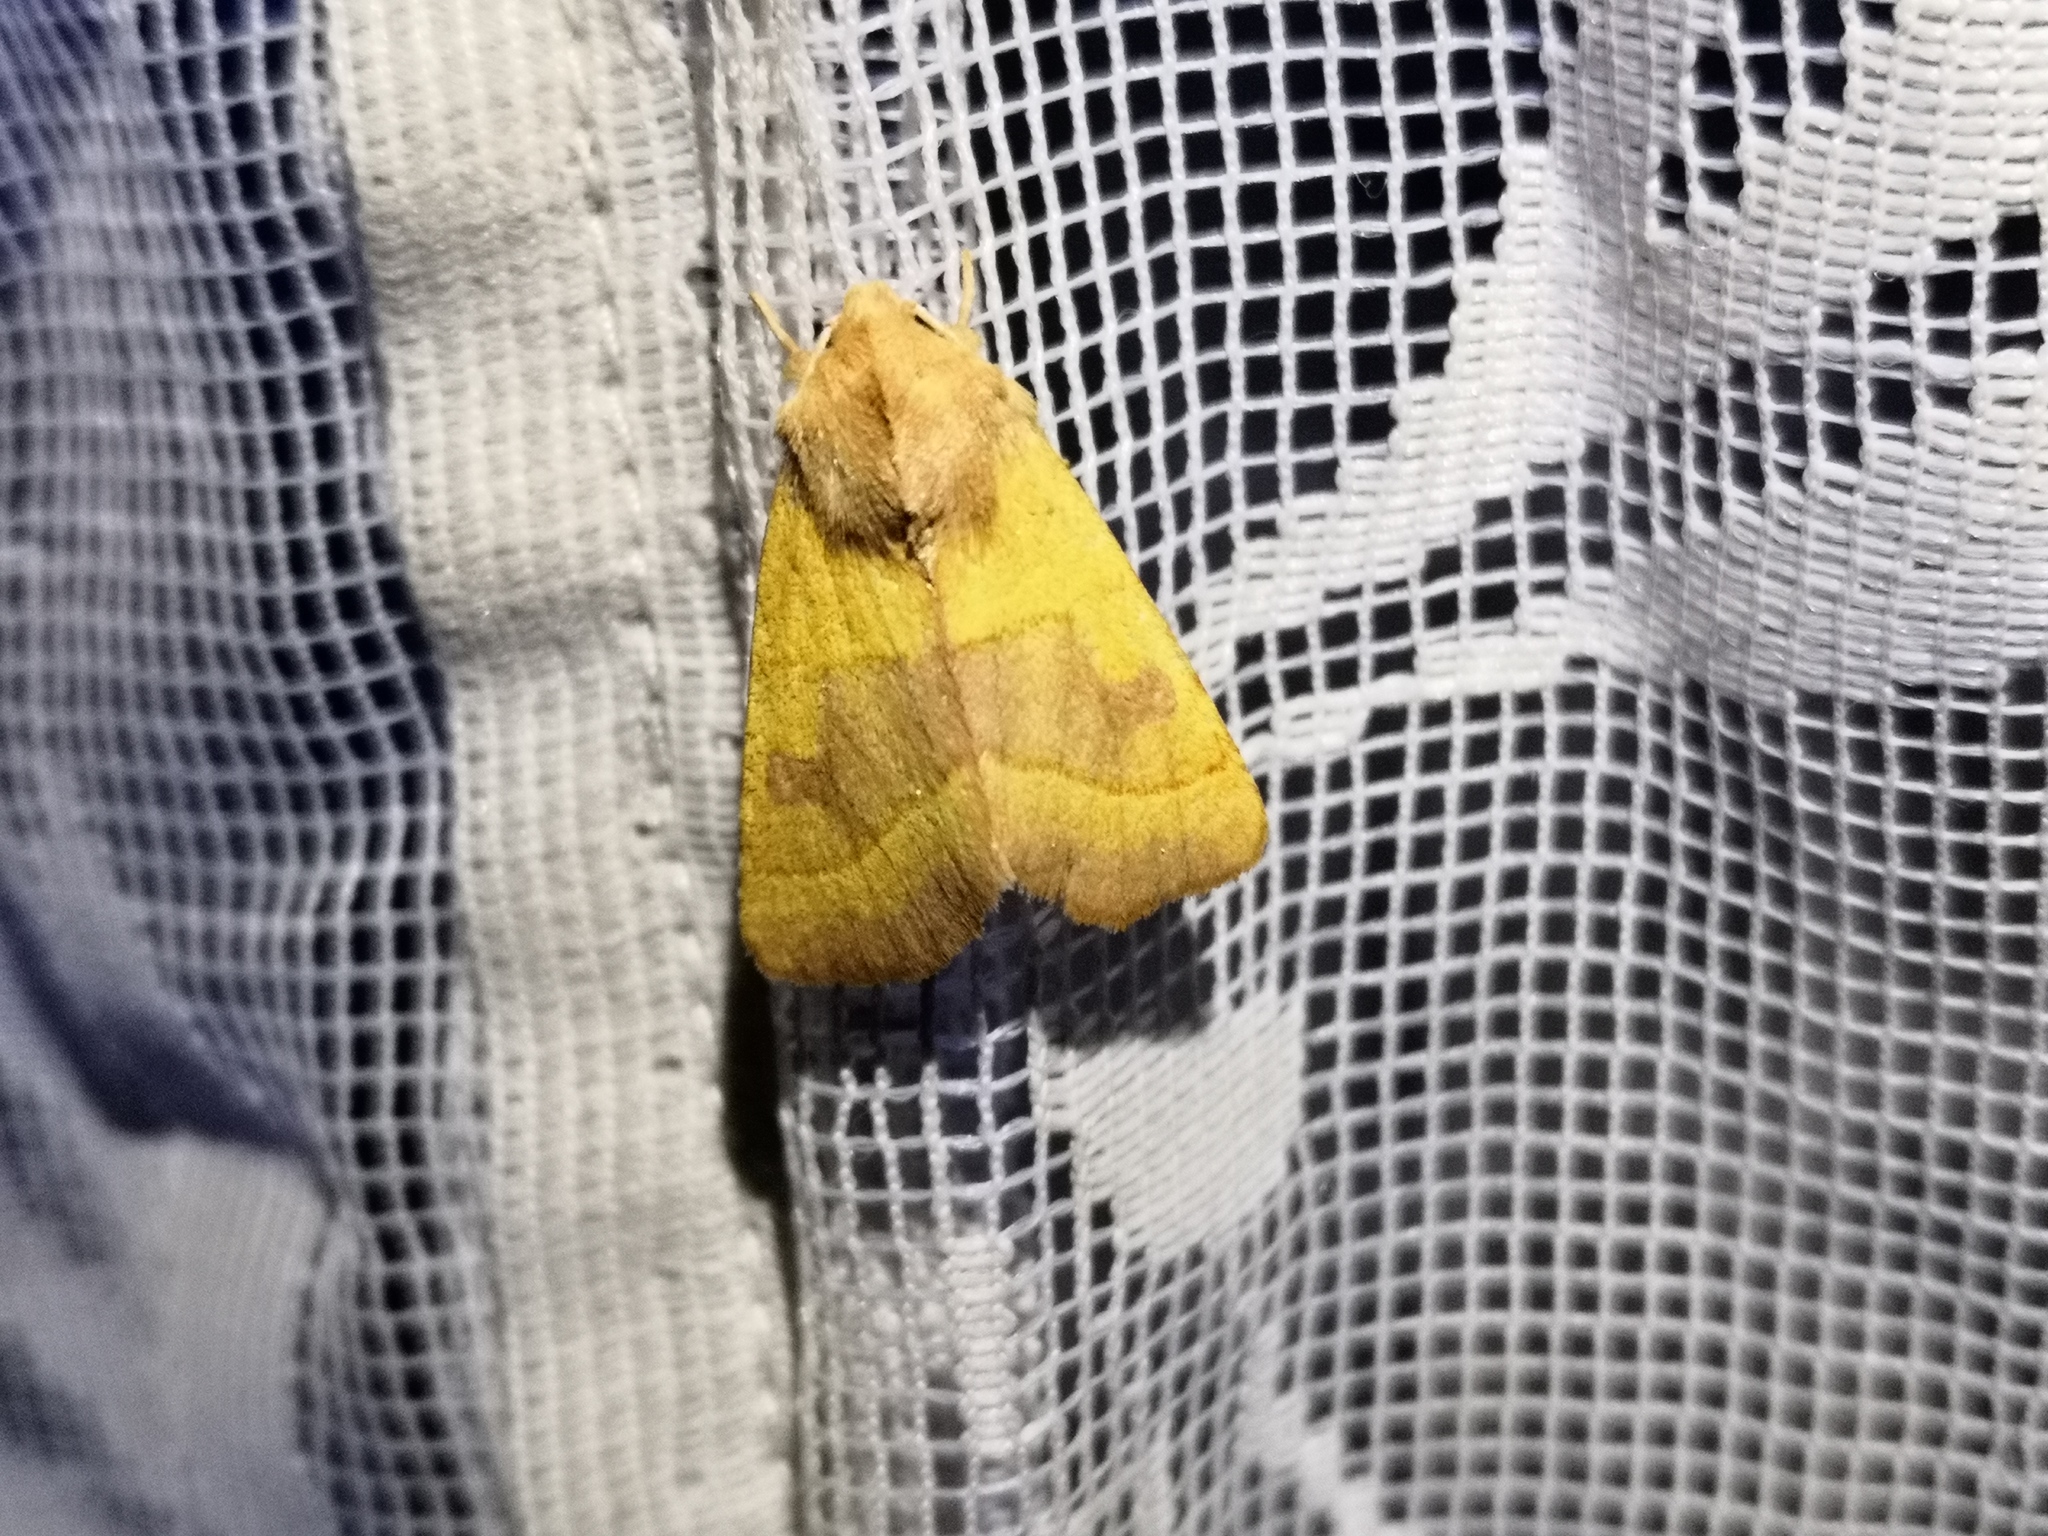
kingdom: Animalia
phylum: Arthropoda
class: Insecta
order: Lepidoptera
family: Noctuidae
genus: Atethmia
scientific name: Atethmia centrago
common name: Centre-barred sallow
